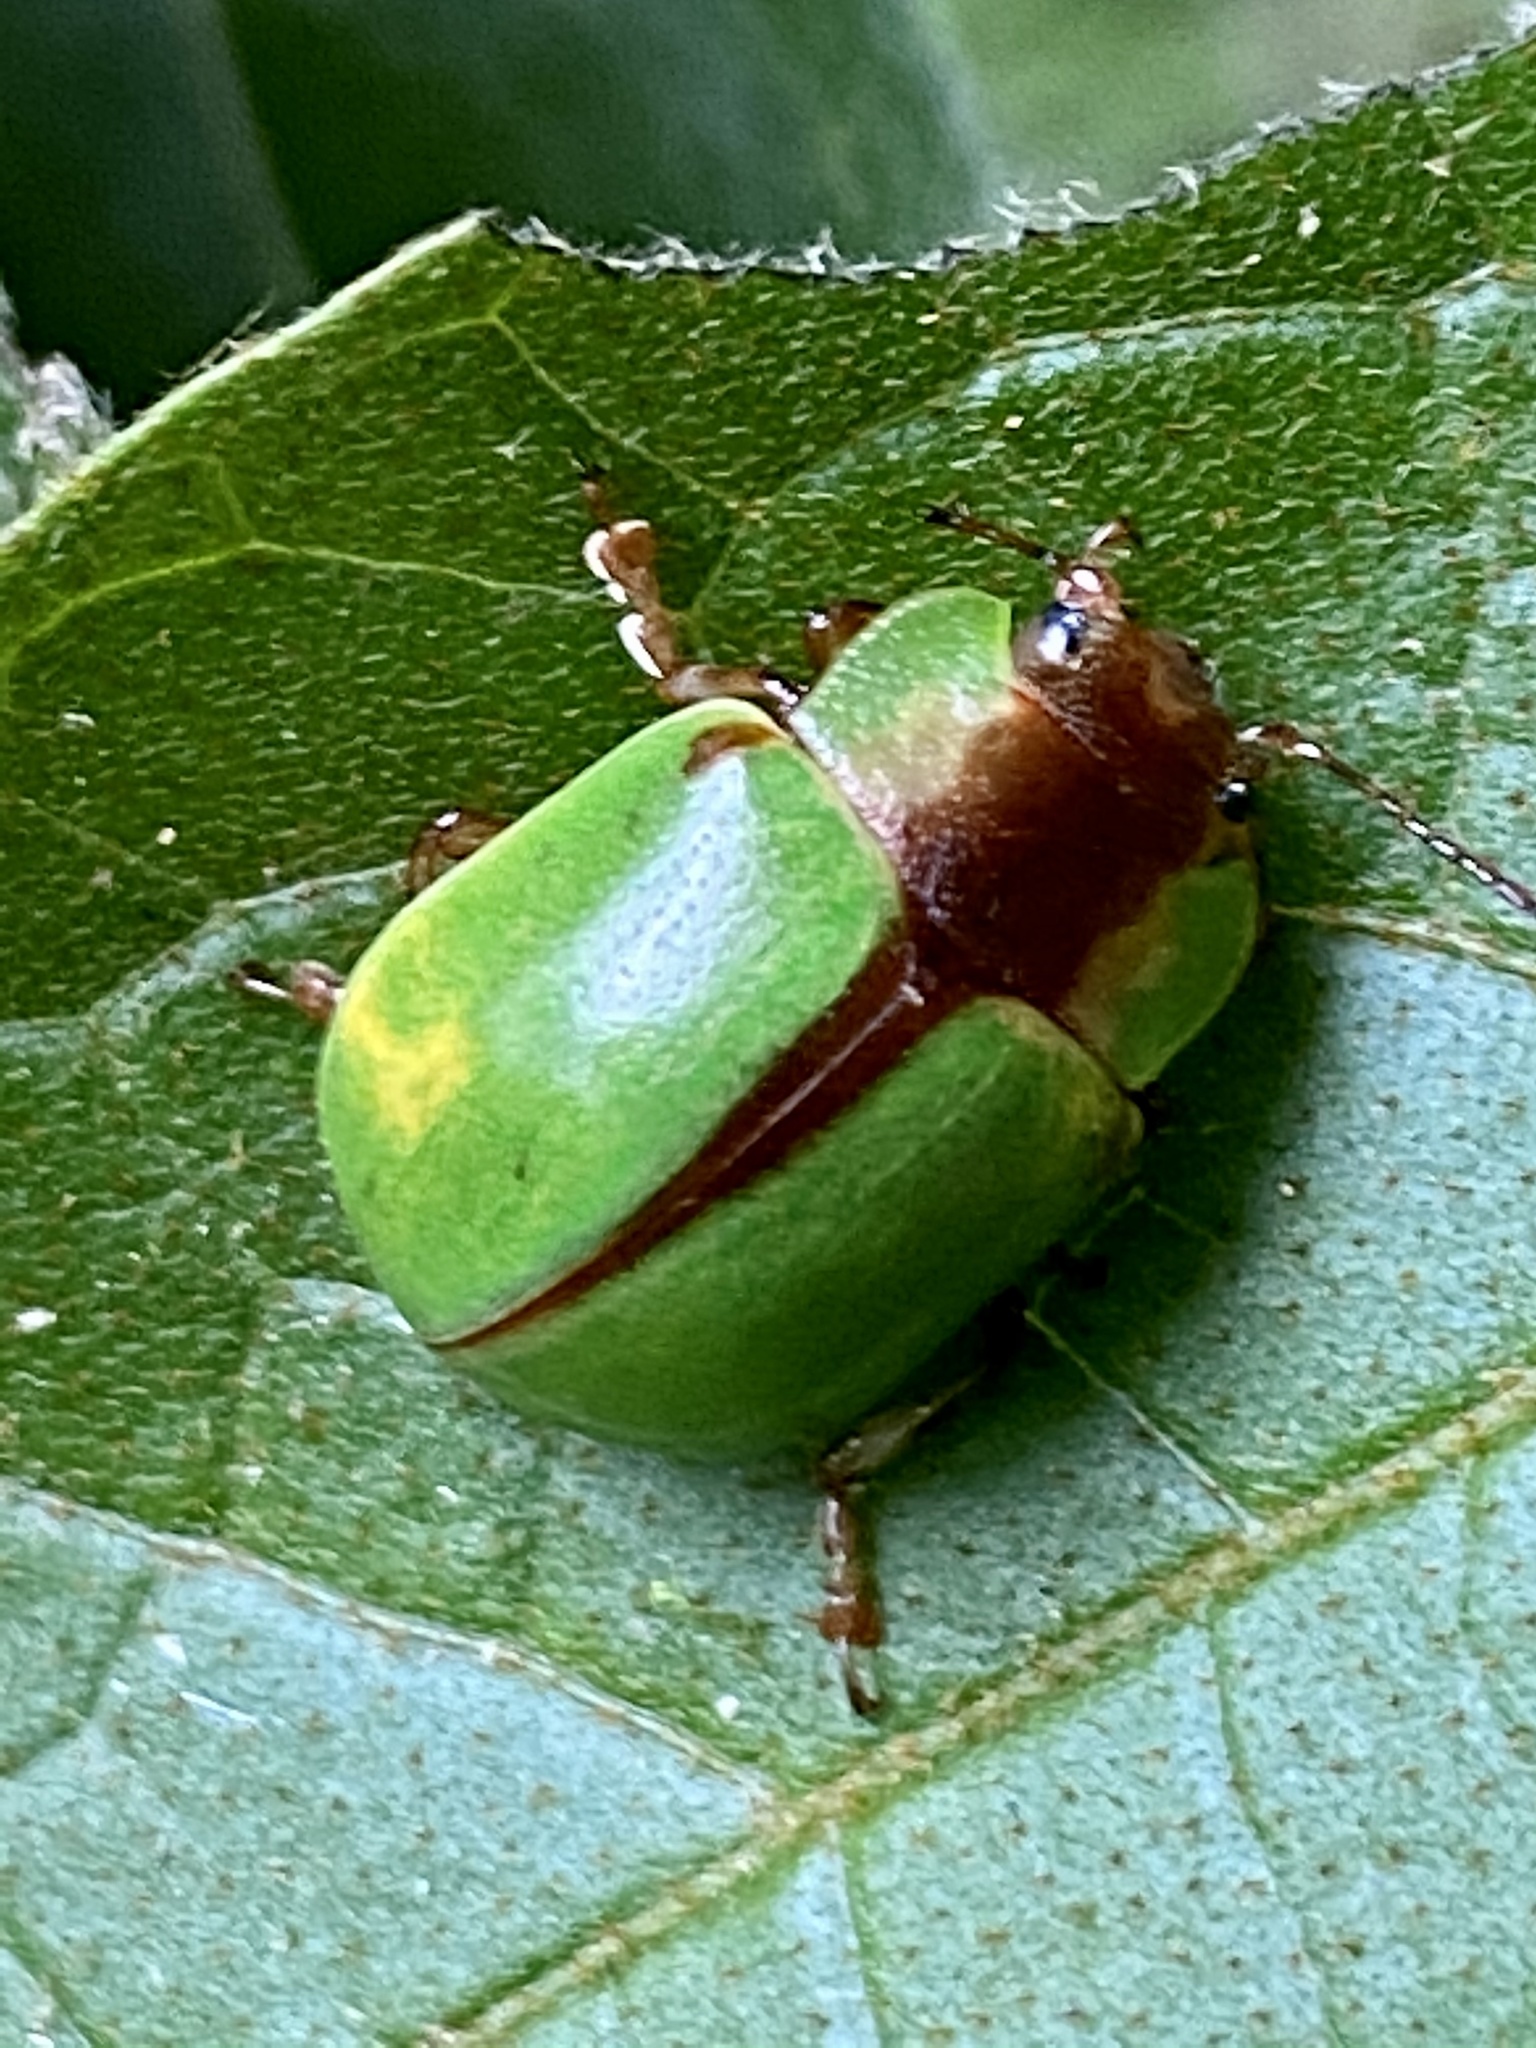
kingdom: Animalia
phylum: Arthropoda
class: Insecta
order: Coleoptera
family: Chrysomelidae
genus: Platyphora
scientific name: Platyphora
